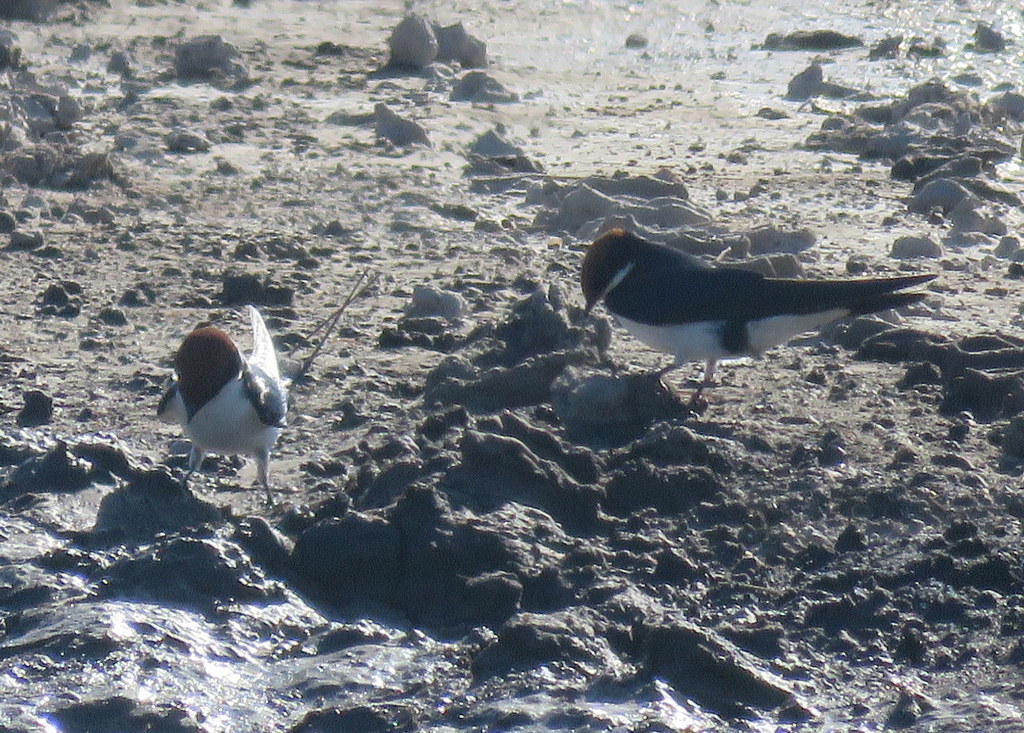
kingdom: Animalia
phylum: Chordata
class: Aves
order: Passeriformes
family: Hirundinidae
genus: Hirundo
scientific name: Hirundo smithii
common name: Wire-tailed swallow
